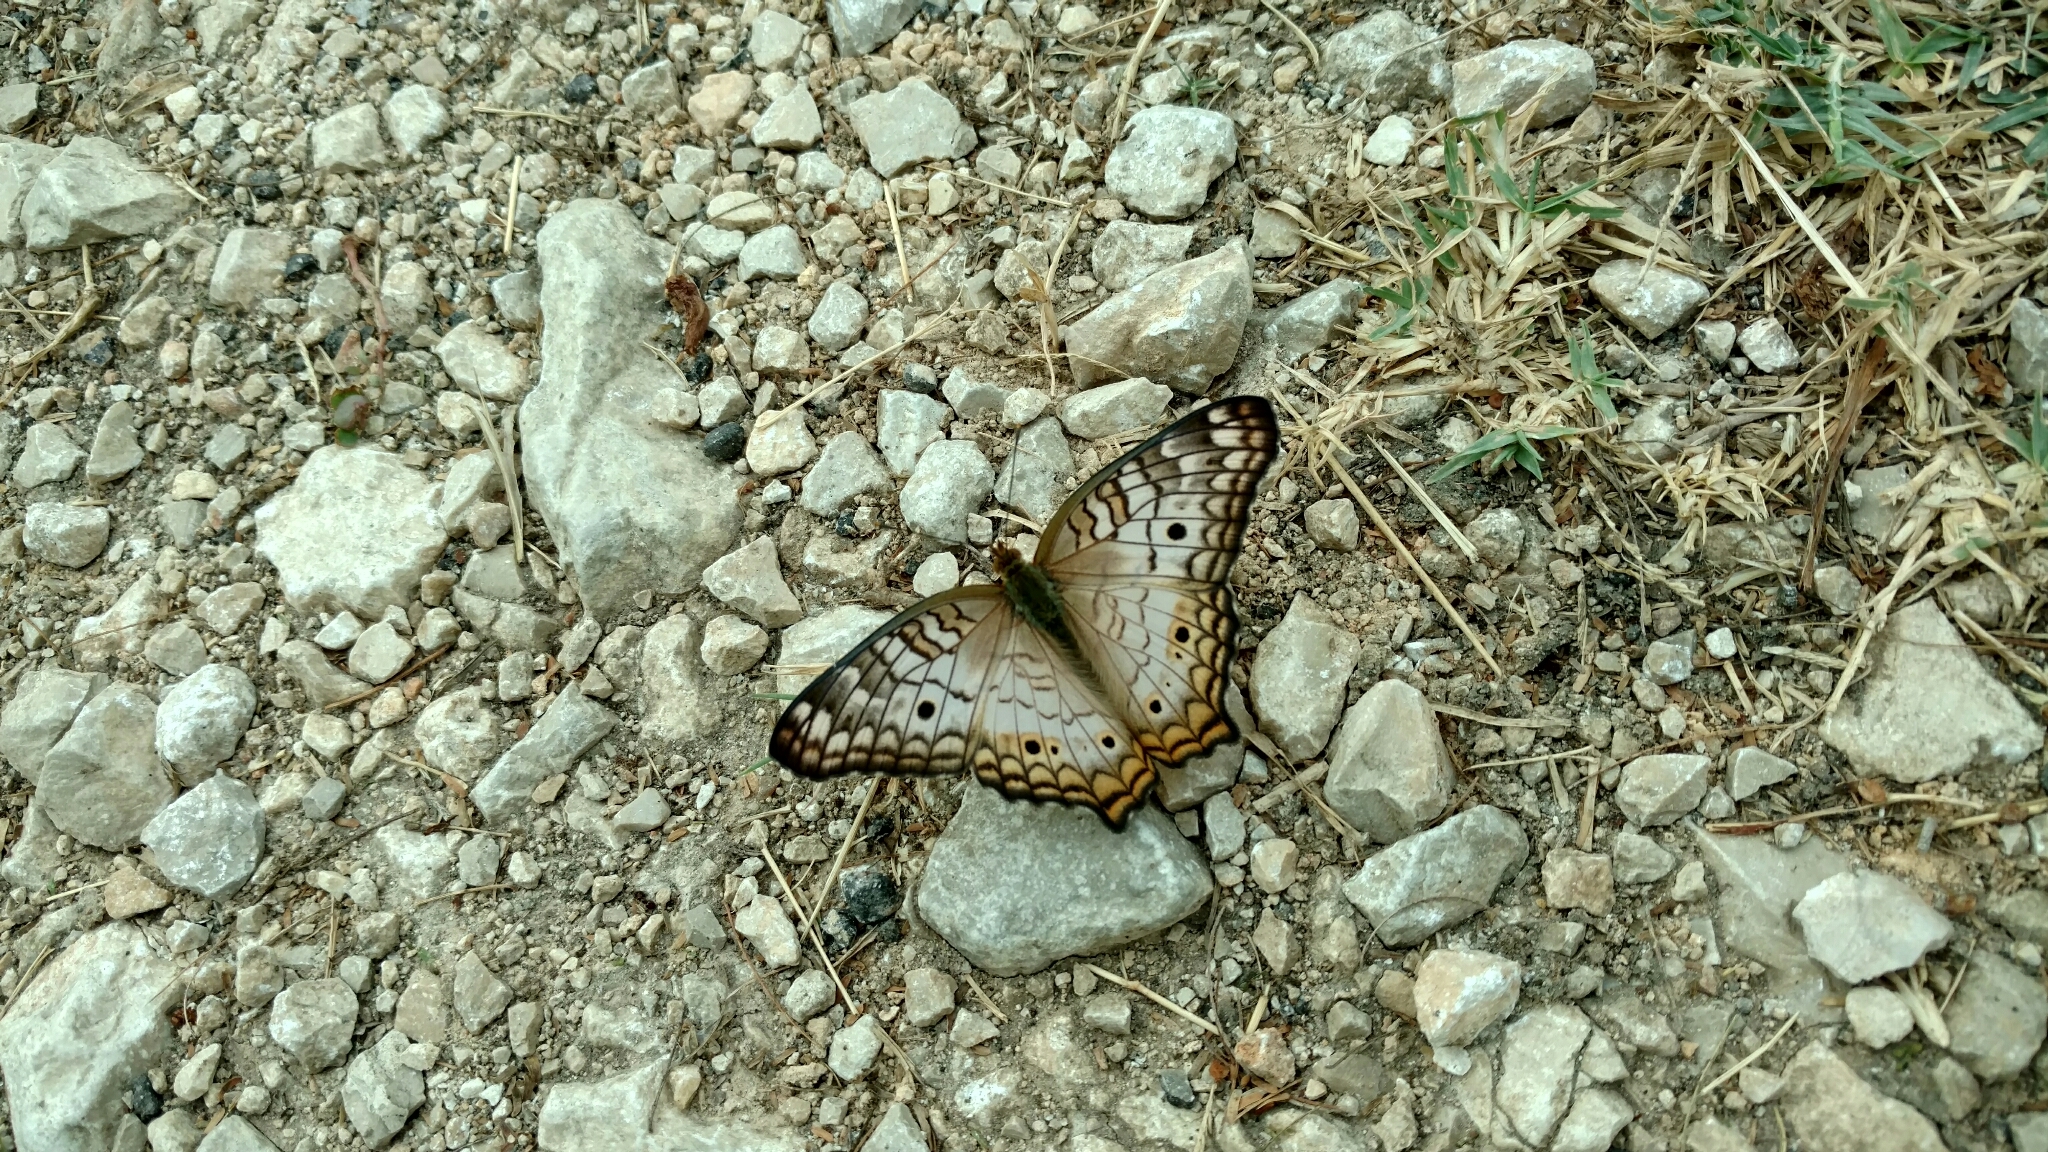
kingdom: Animalia
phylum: Arthropoda
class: Insecta
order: Lepidoptera
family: Nymphalidae
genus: Anartia
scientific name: Anartia jatrophae
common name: White peacock
